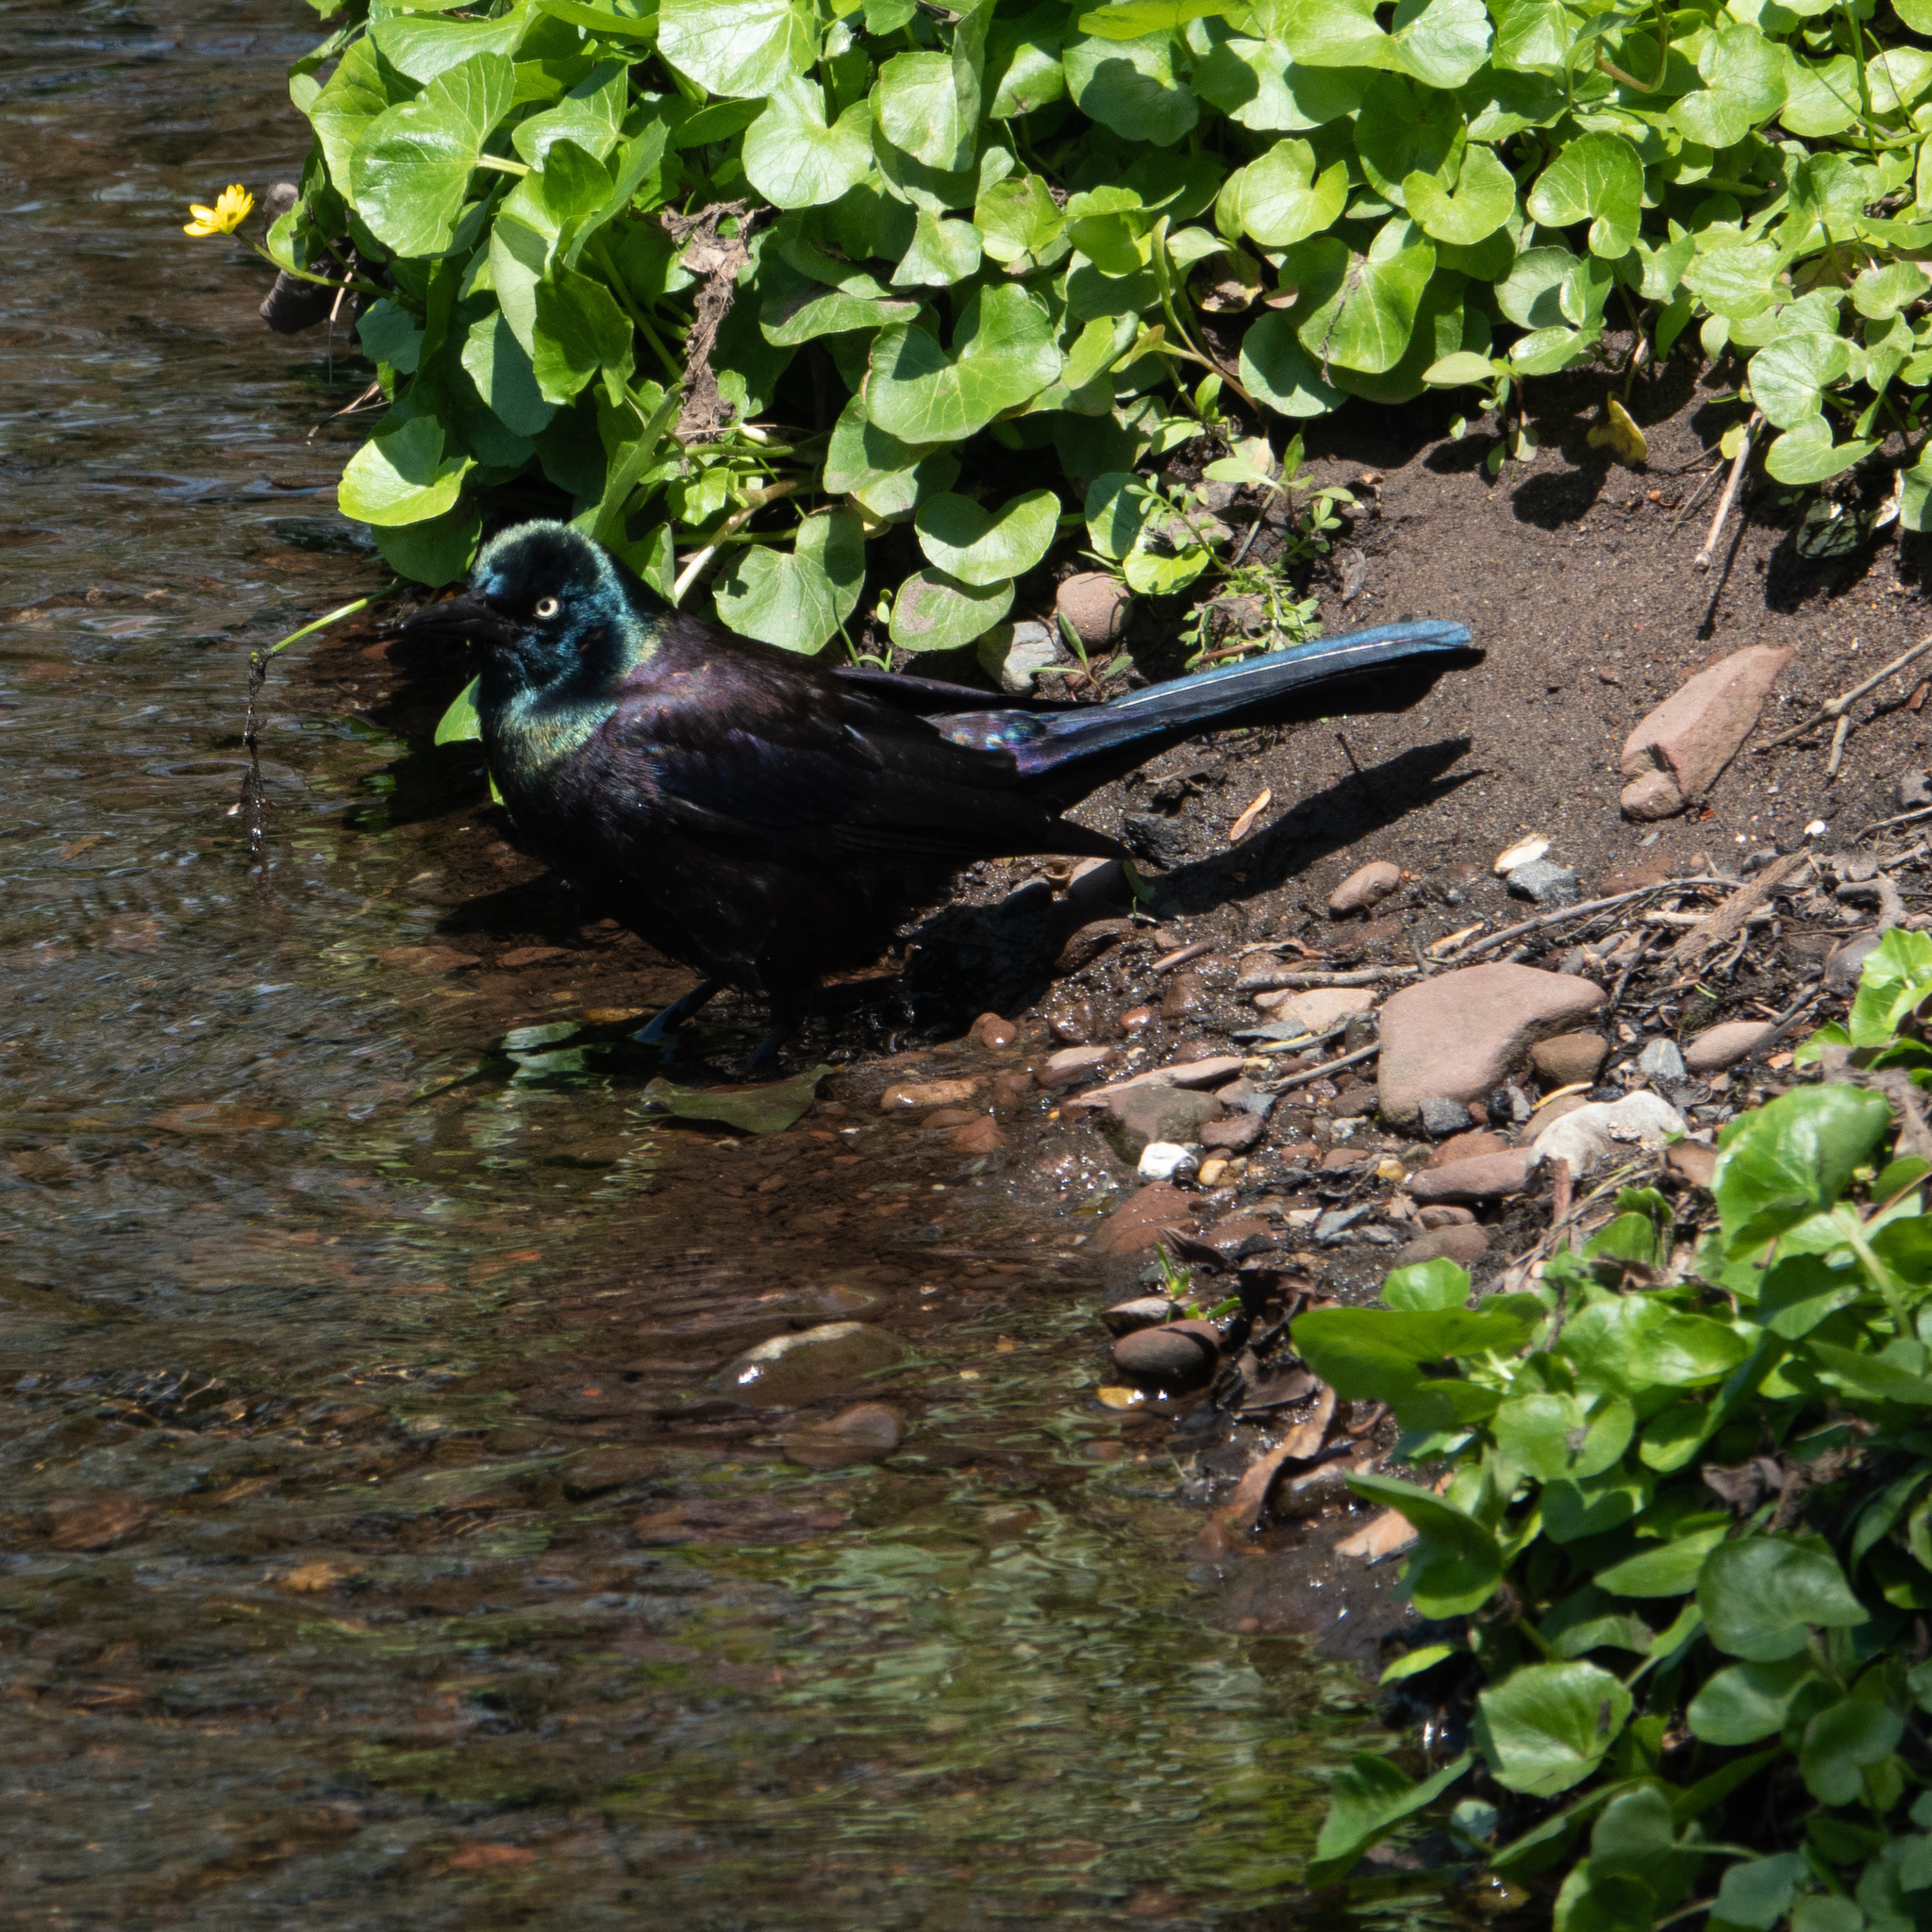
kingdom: Animalia
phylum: Chordata
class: Aves
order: Passeriformes
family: Icteridae
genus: Quiscalus
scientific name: Quiscalus quiscula
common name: Common grackle
